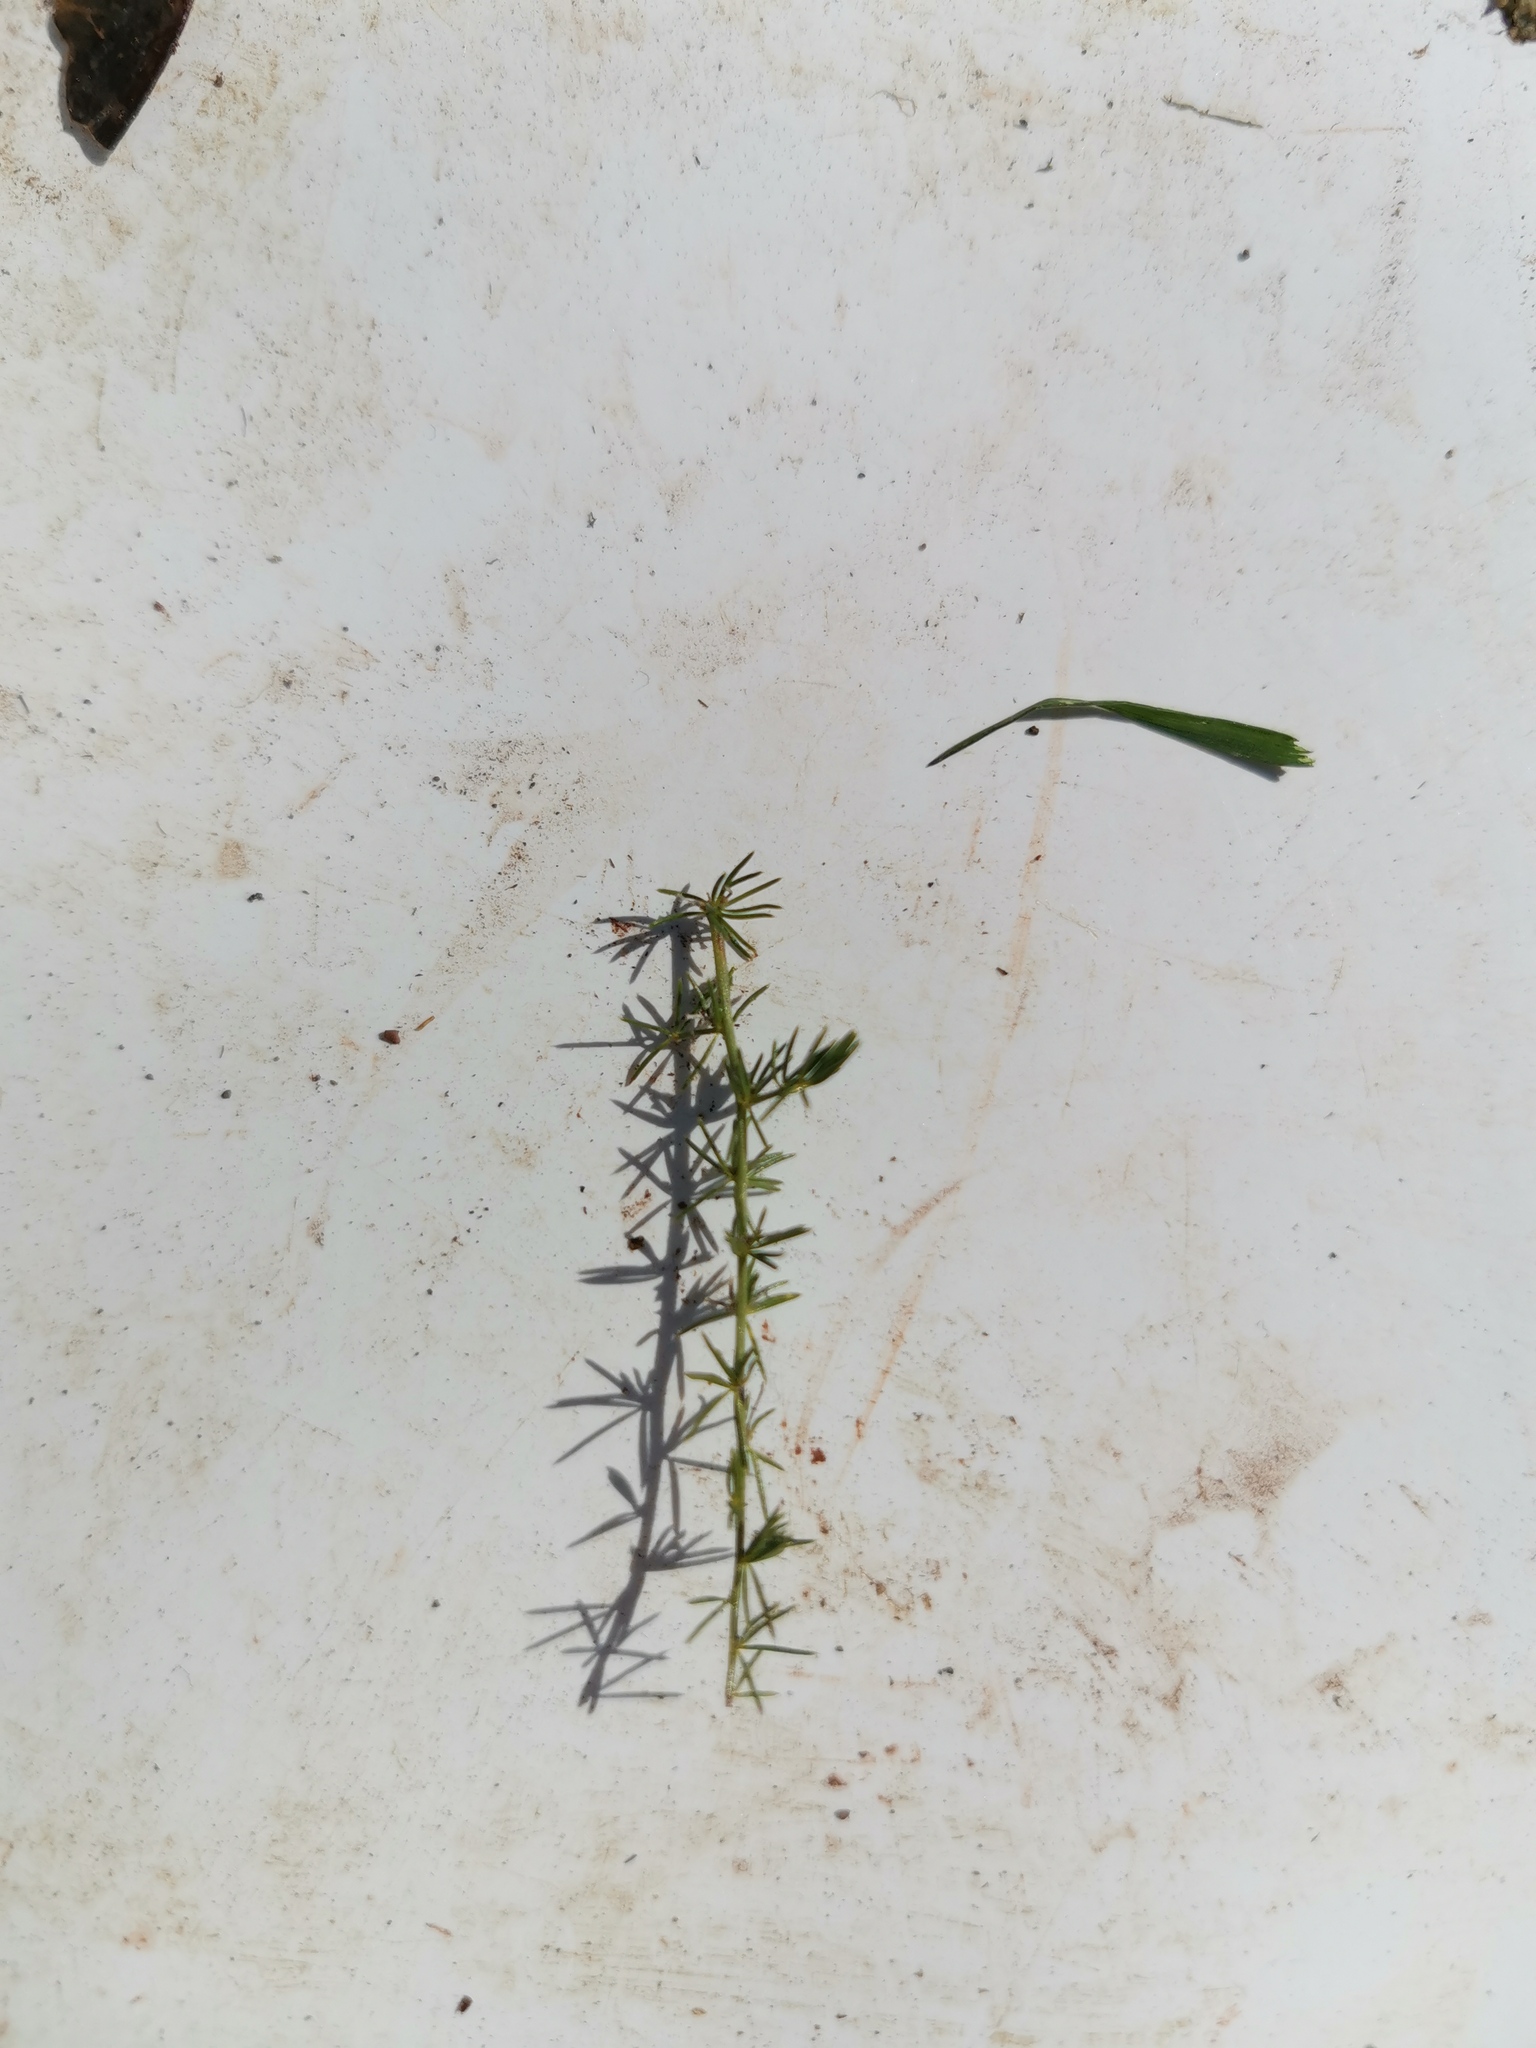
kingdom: Plantae
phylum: Tracheophyta
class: Liliopsida
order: Asparagales
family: Asparagaceae
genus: Asparagus
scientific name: Asparagus acutifolius
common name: Wild asparagus
